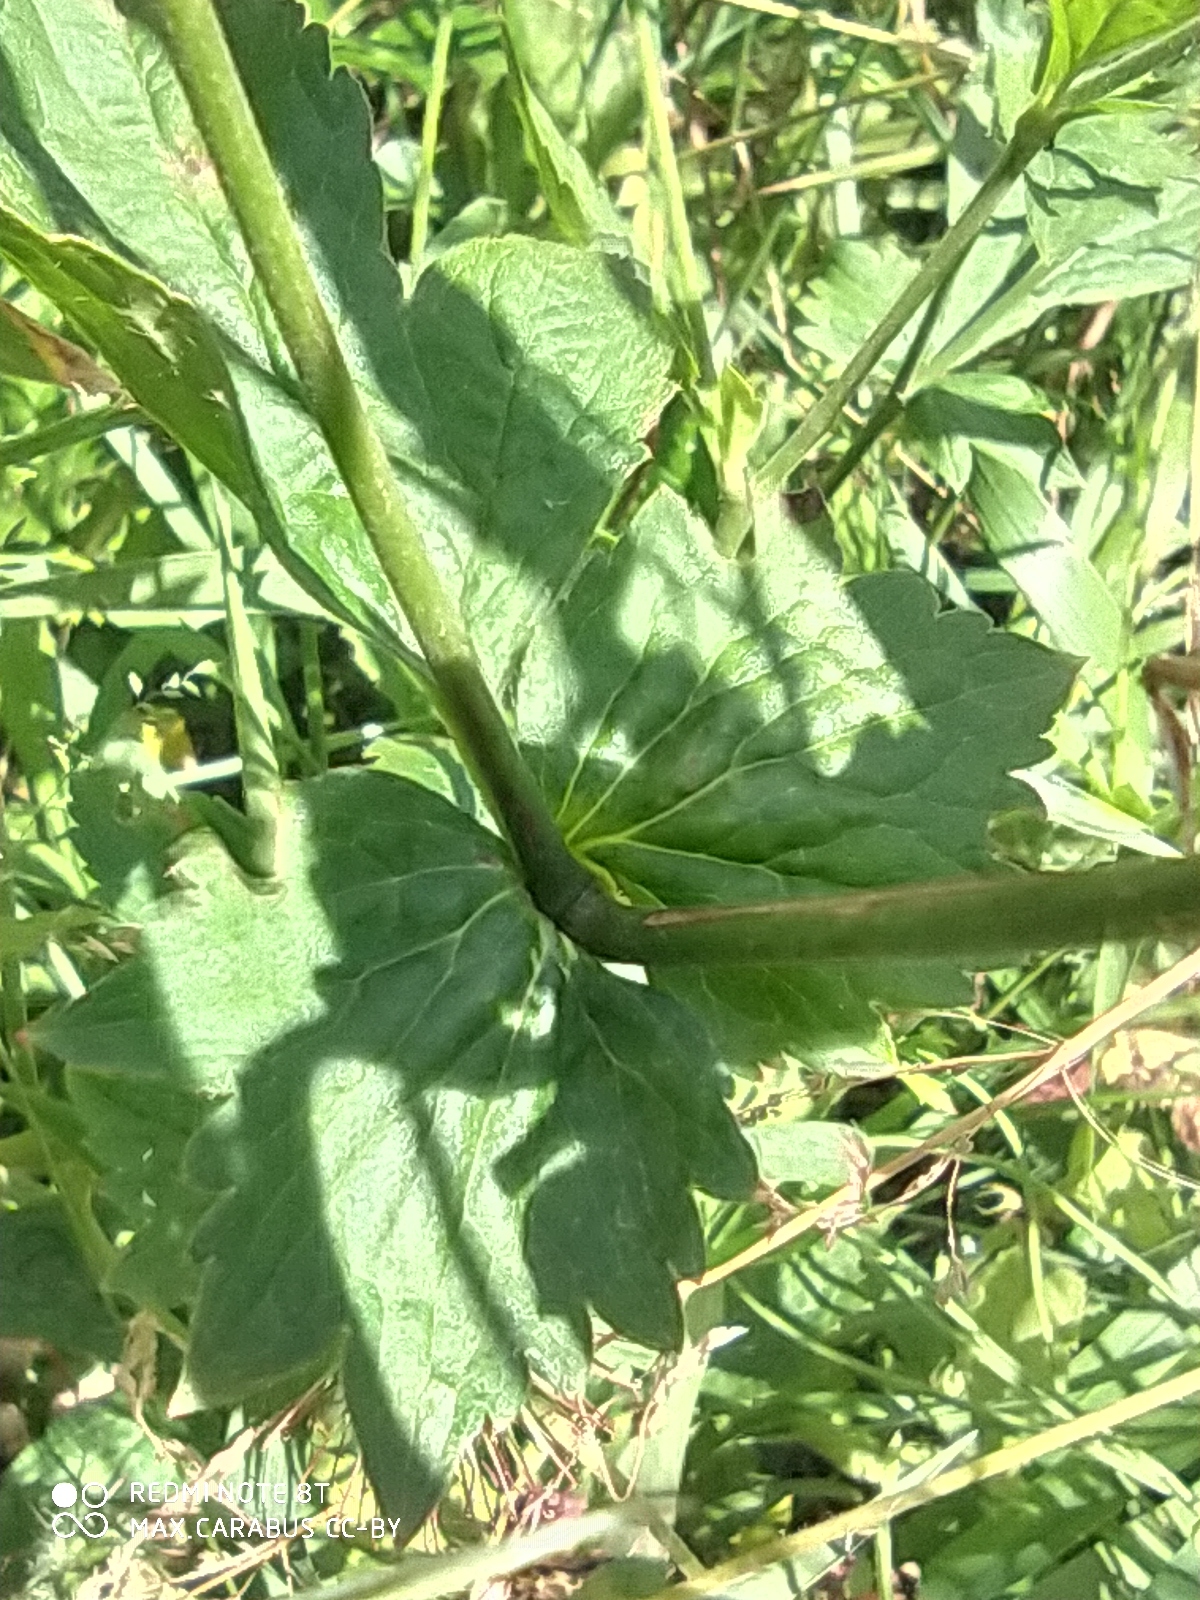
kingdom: Plantae
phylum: Tracheophyta
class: Magnoliopsida
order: Rosales
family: Rosaceae
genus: Geum
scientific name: Geum urbanum
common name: Wood avens
